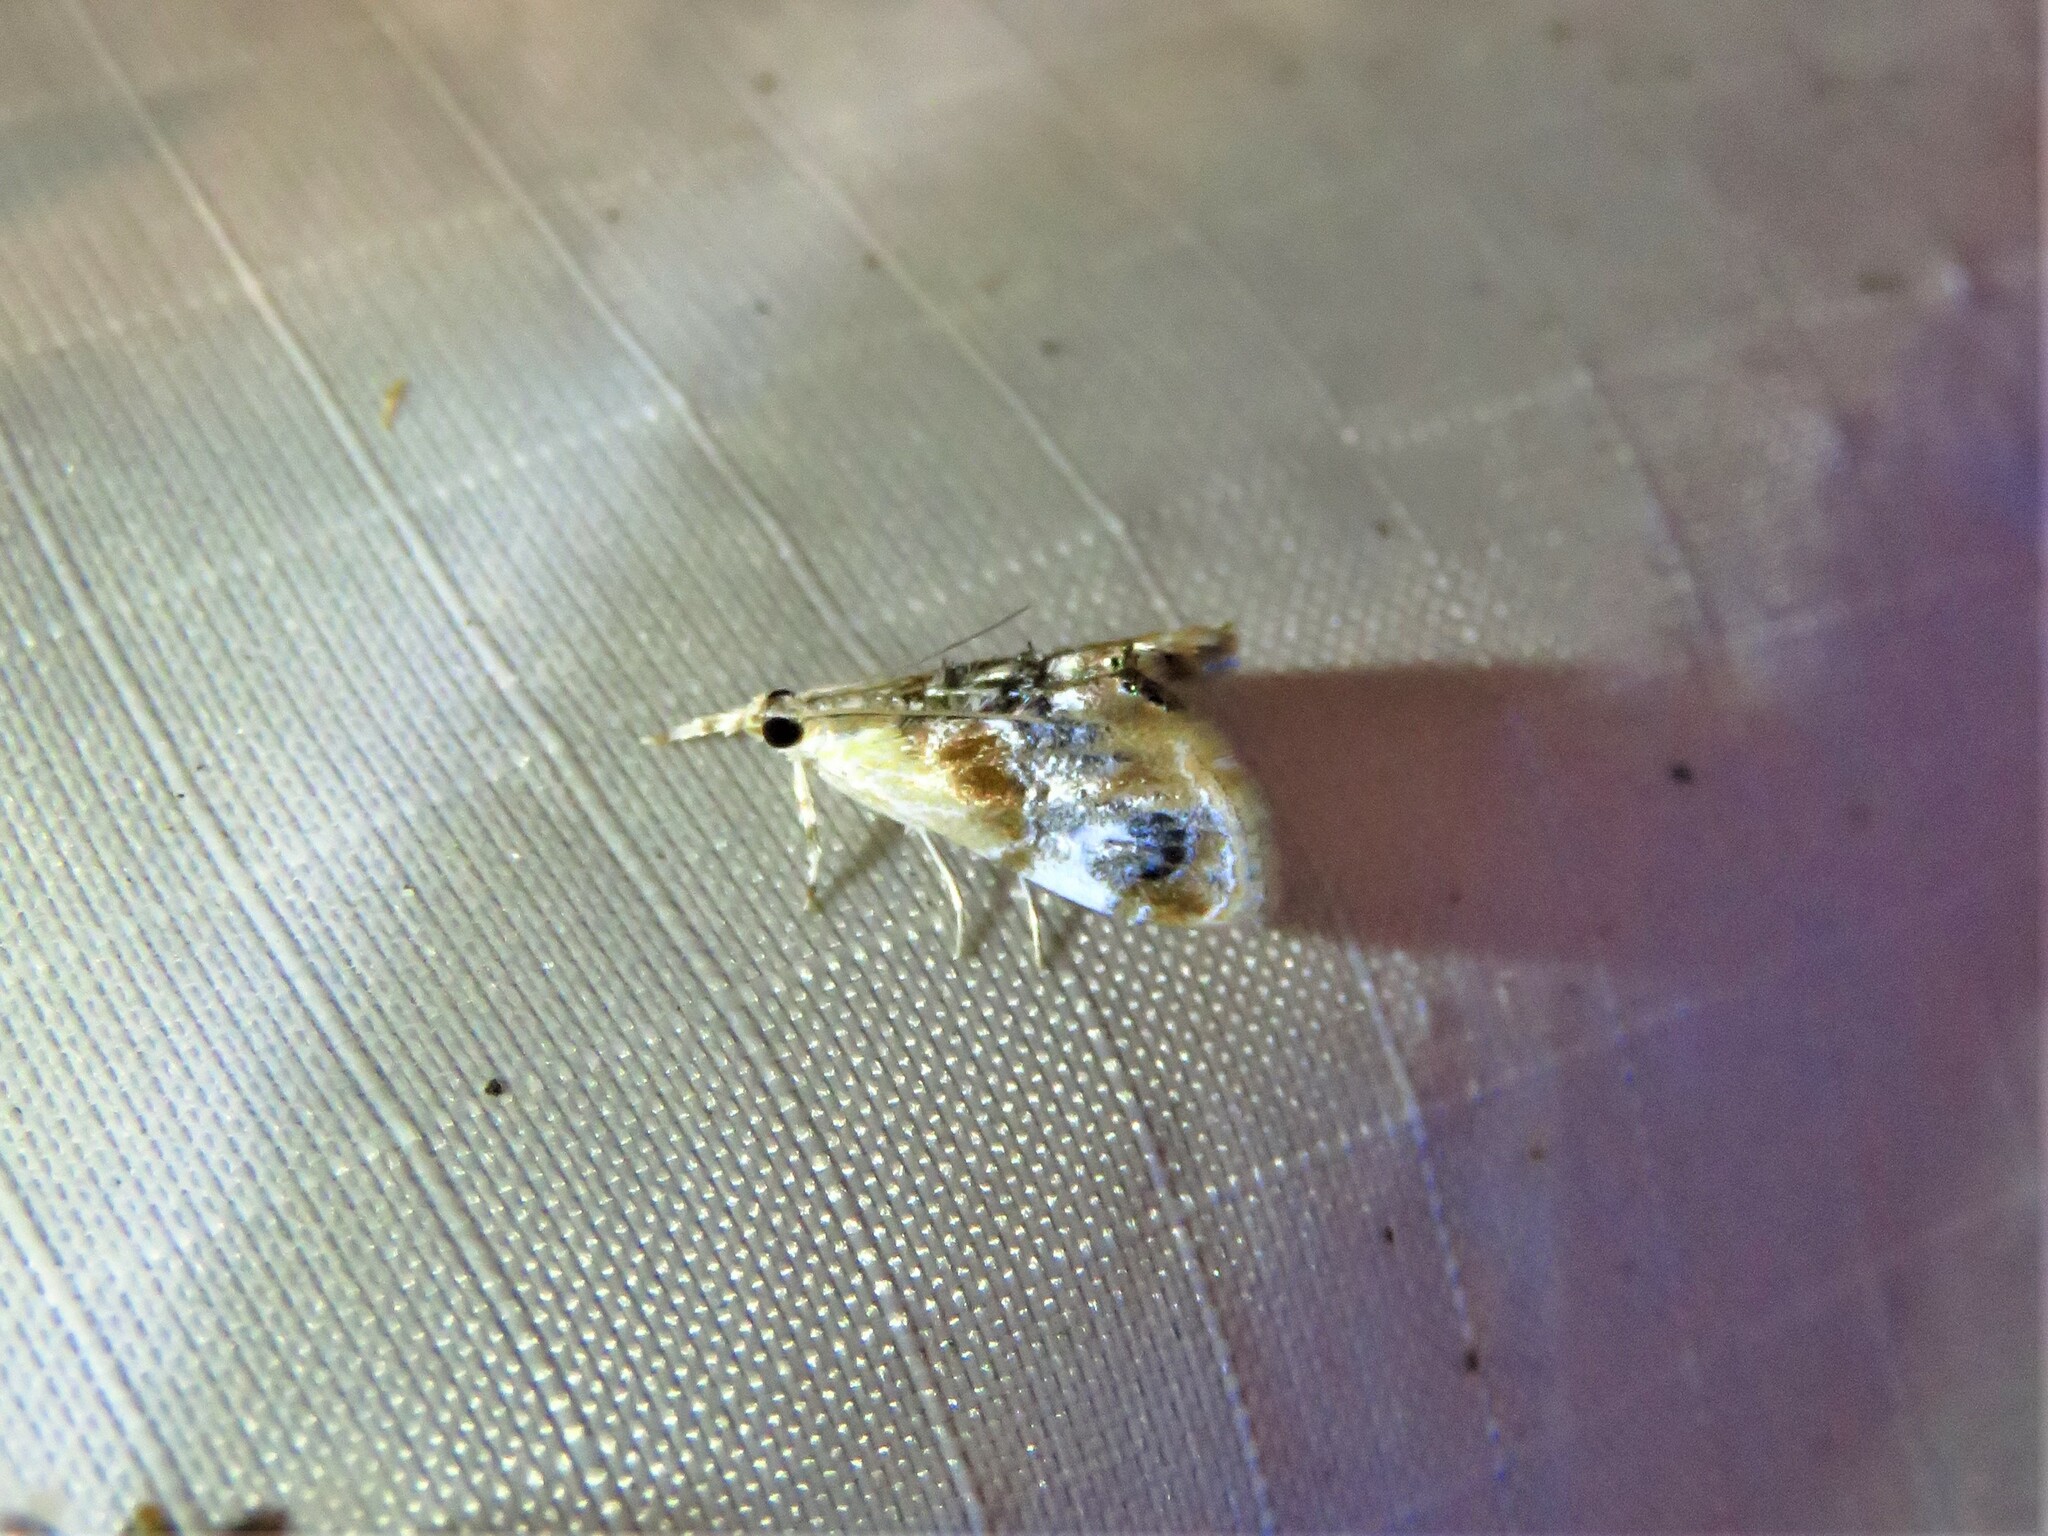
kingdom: Animalia
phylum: Arthropoda
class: Insecta
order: Lepidoptera
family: Crambidae
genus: Dicymolomia
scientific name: Dicymolomia julianalis
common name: Julia's dicymolomia moth
